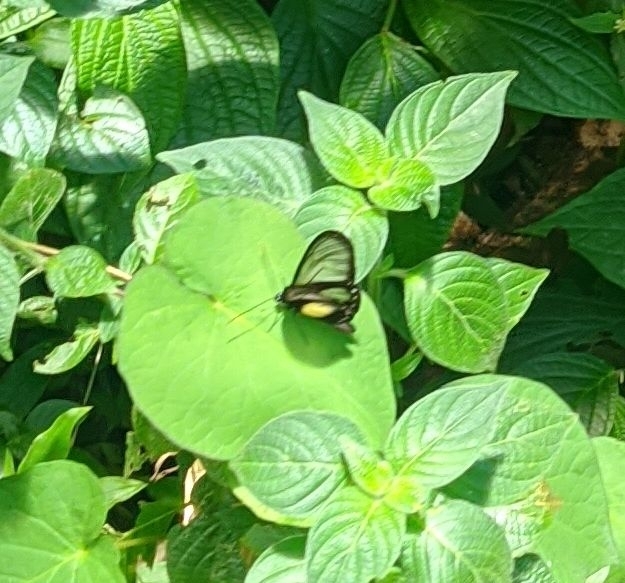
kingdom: Animalia
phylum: Arthropoda
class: Insecta
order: Lepidoptera
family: Nymphalidae
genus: Hyalyris
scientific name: Hyalyris coeno
